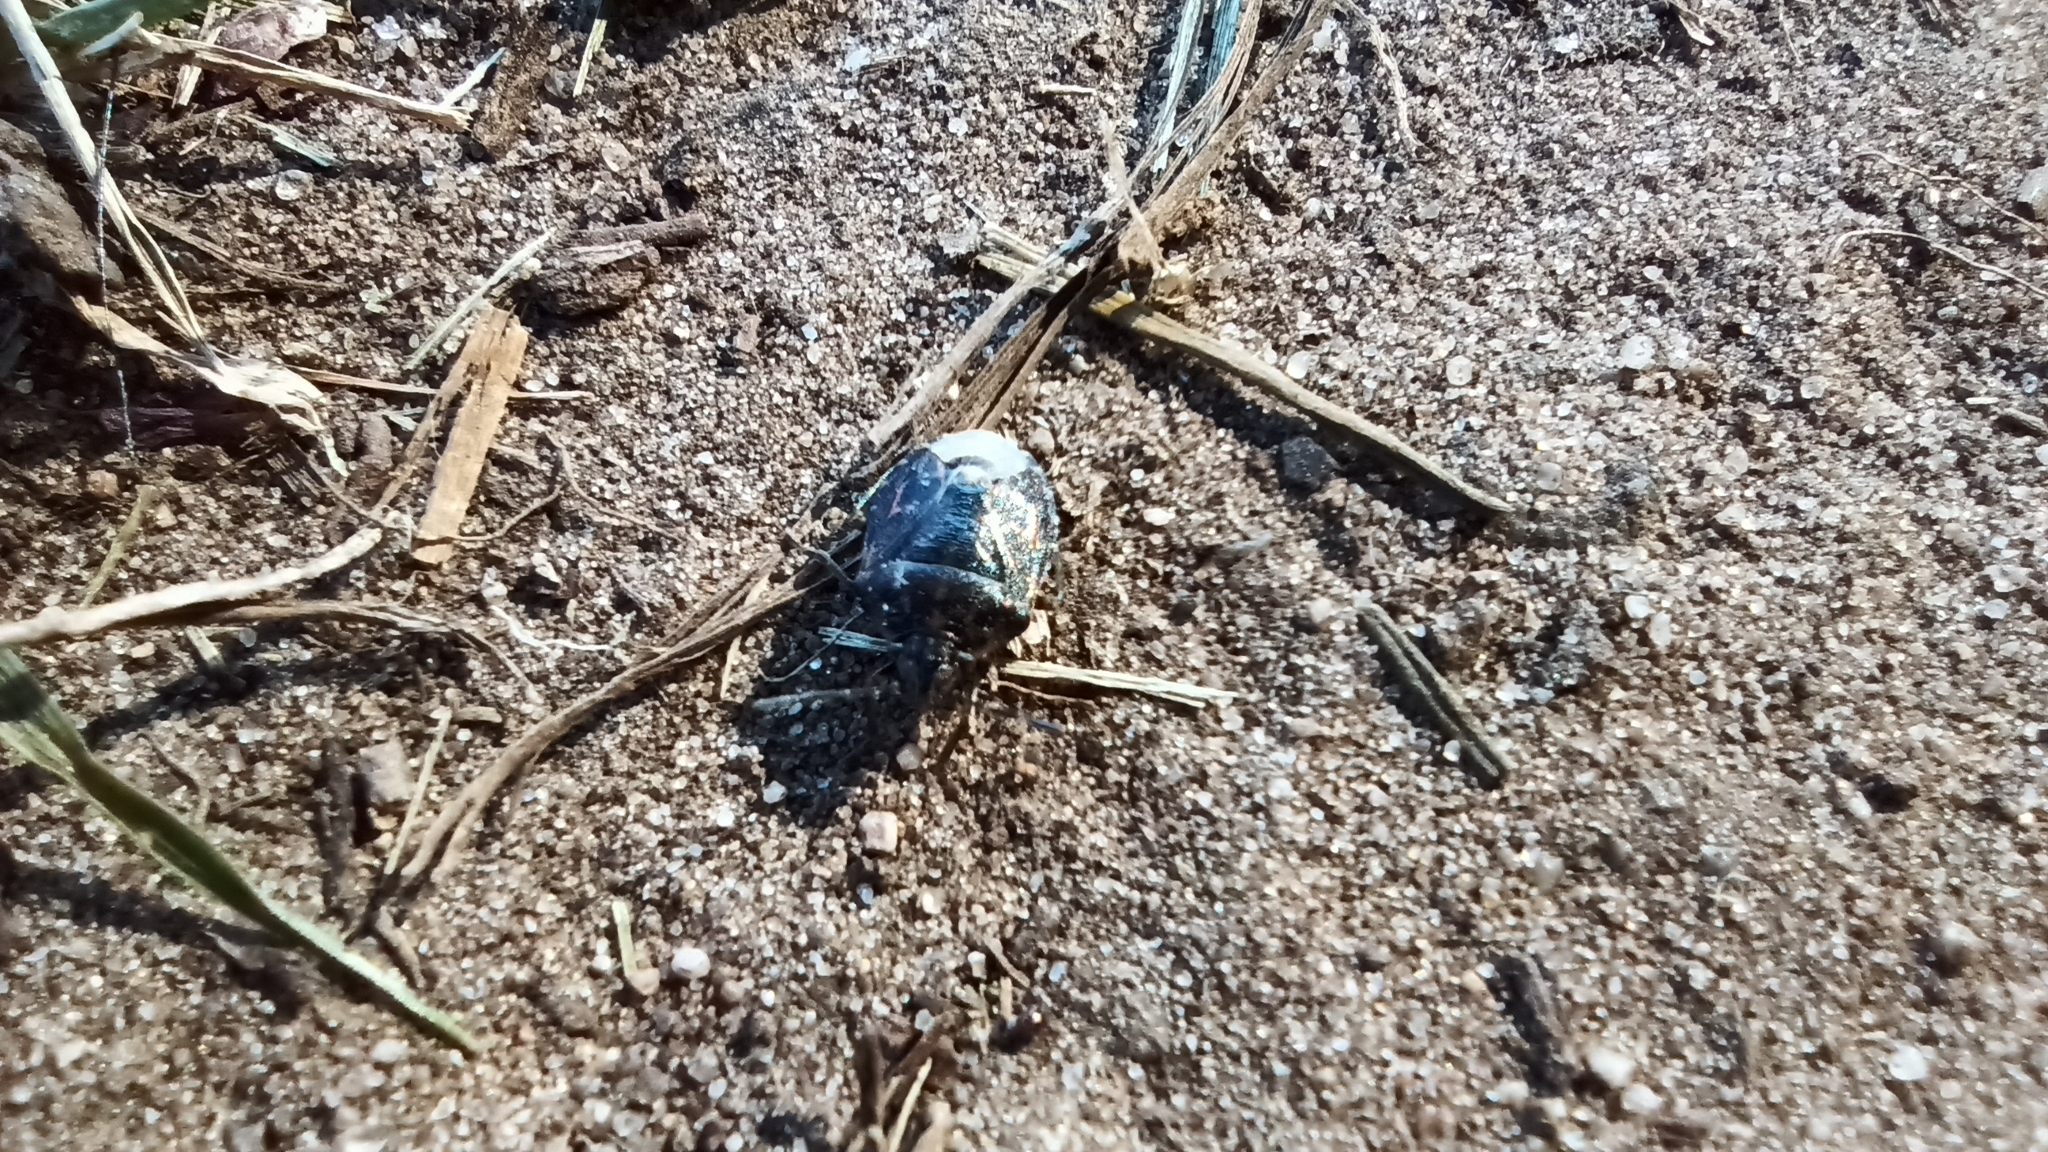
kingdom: Animalia
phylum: Arthropoda
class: Insecta
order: Hemiptera
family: Pentatomidae
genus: Holcogaster
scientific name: Holcogaster fibulata
